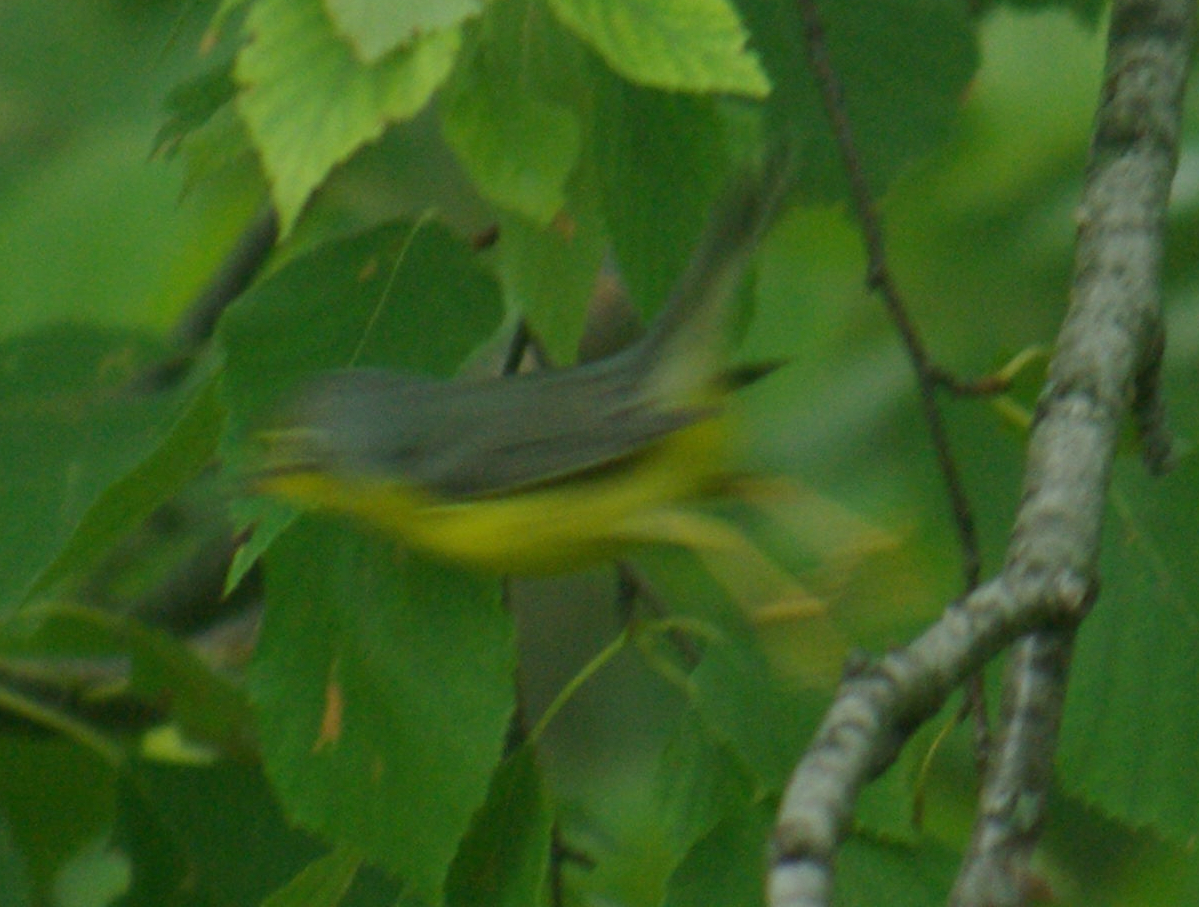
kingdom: Animalia
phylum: Chordata
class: Aves
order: Passeriformes
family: Parulidae
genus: Cardellina
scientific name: Cardellina canadensis
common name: Canada warbler
